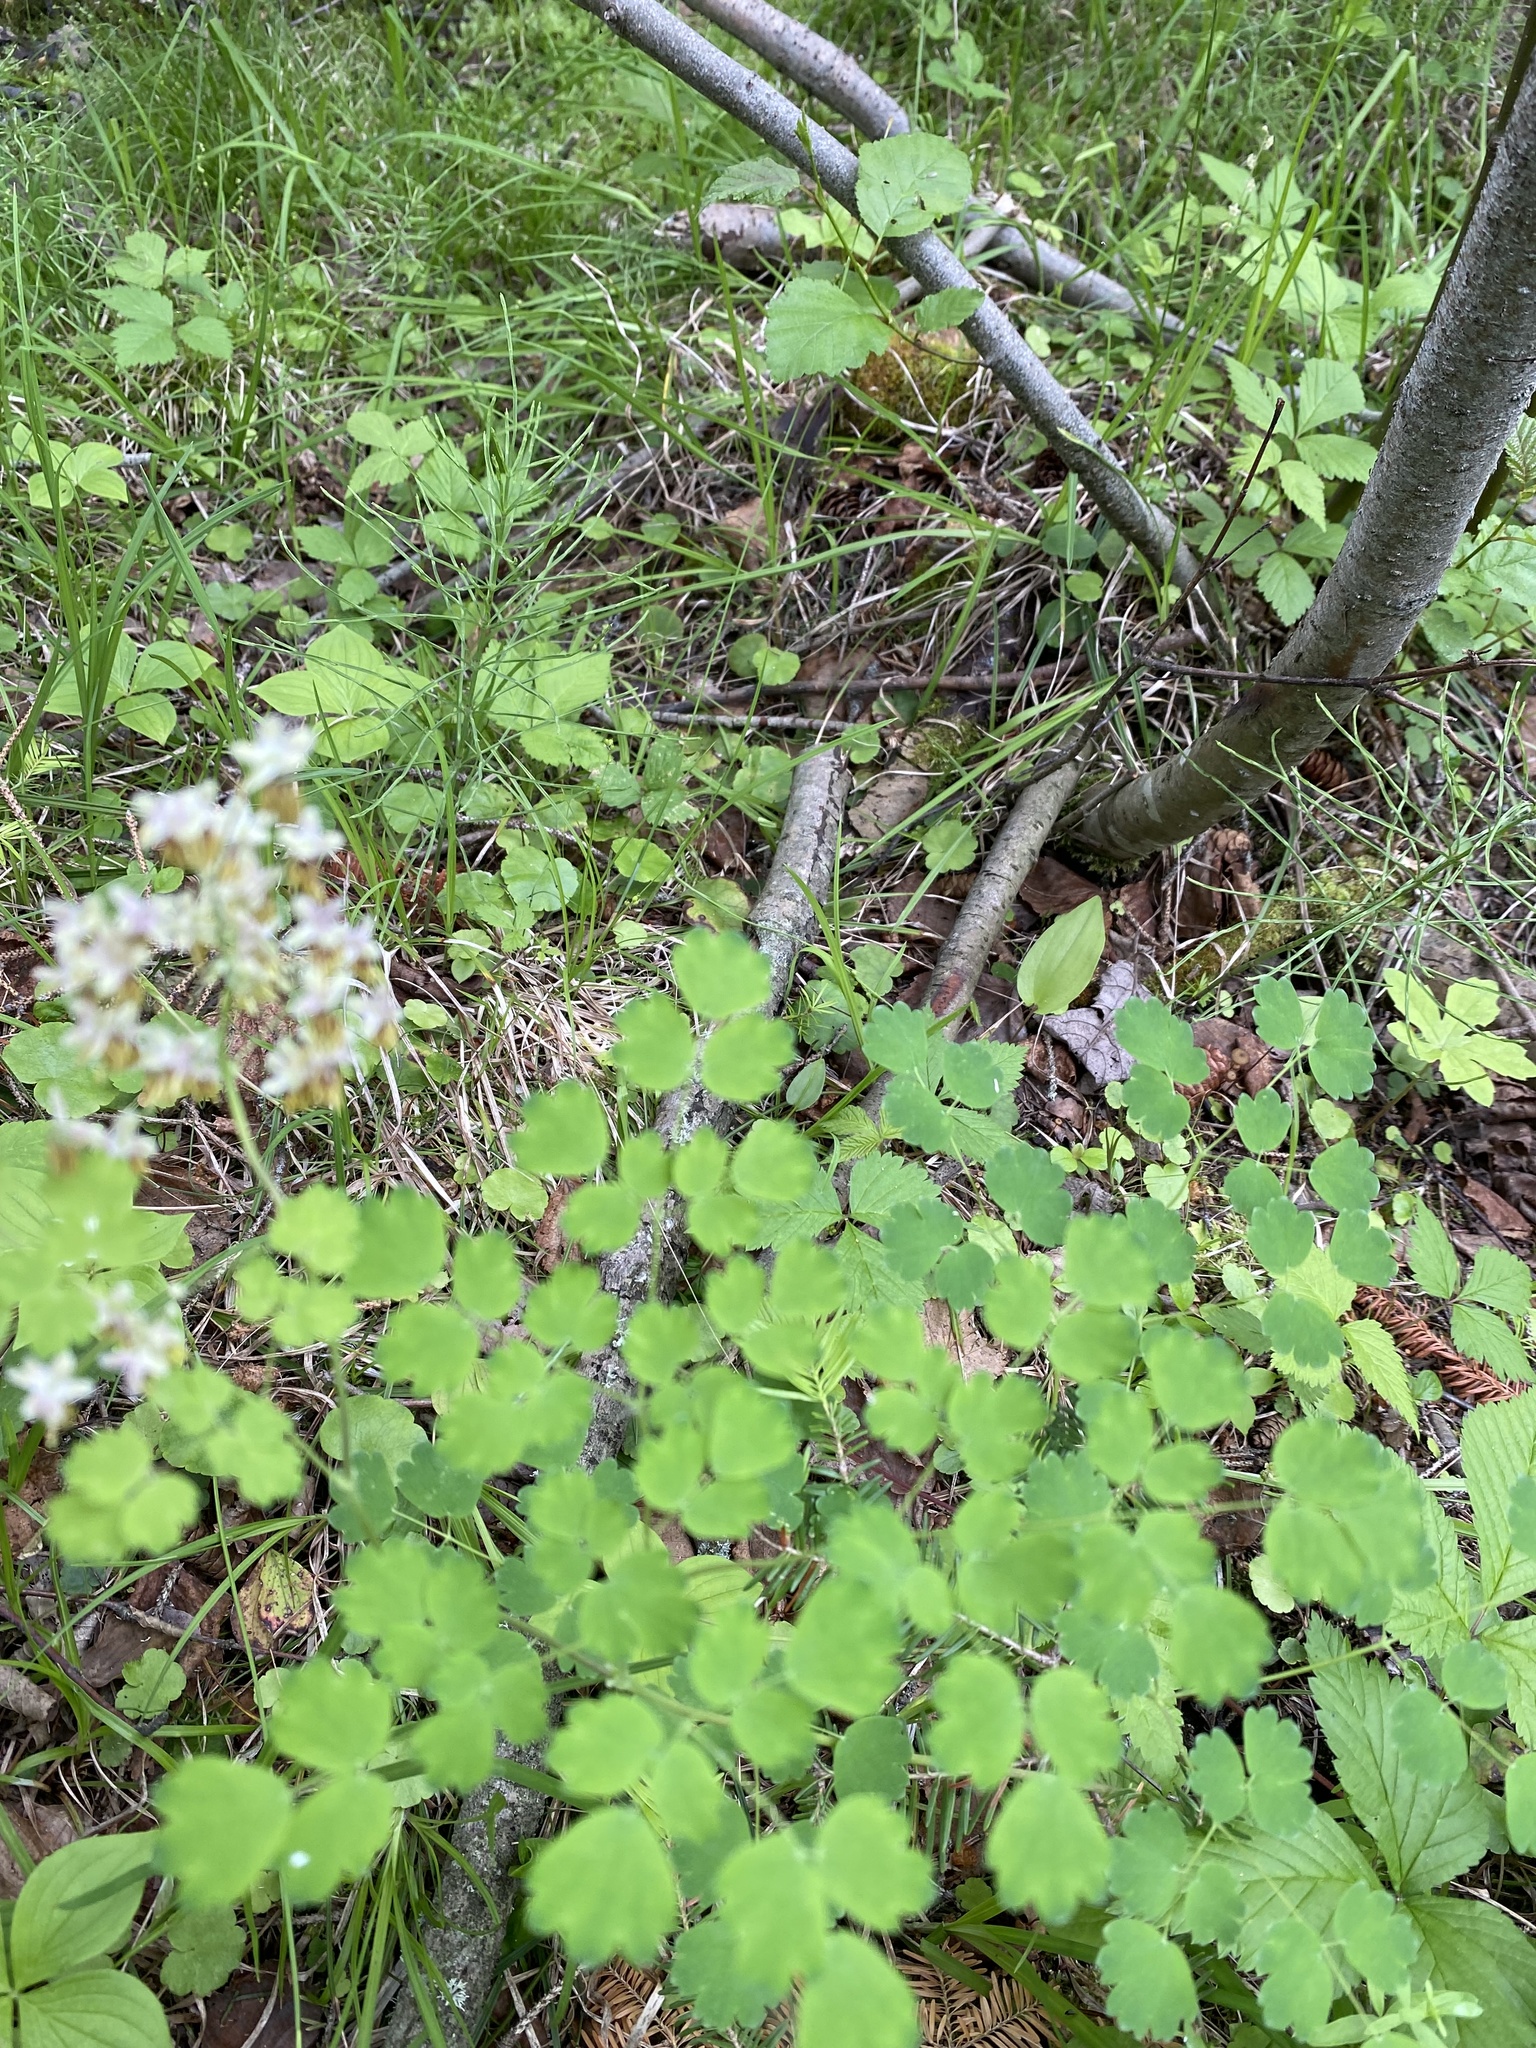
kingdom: Plantae
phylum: Tracheophyta
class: Magnoliopsida
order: Ranunculales
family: Ranunculaceae
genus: Thalictrum
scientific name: Thalictrum dasycarpum
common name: Purple meadow-rue
